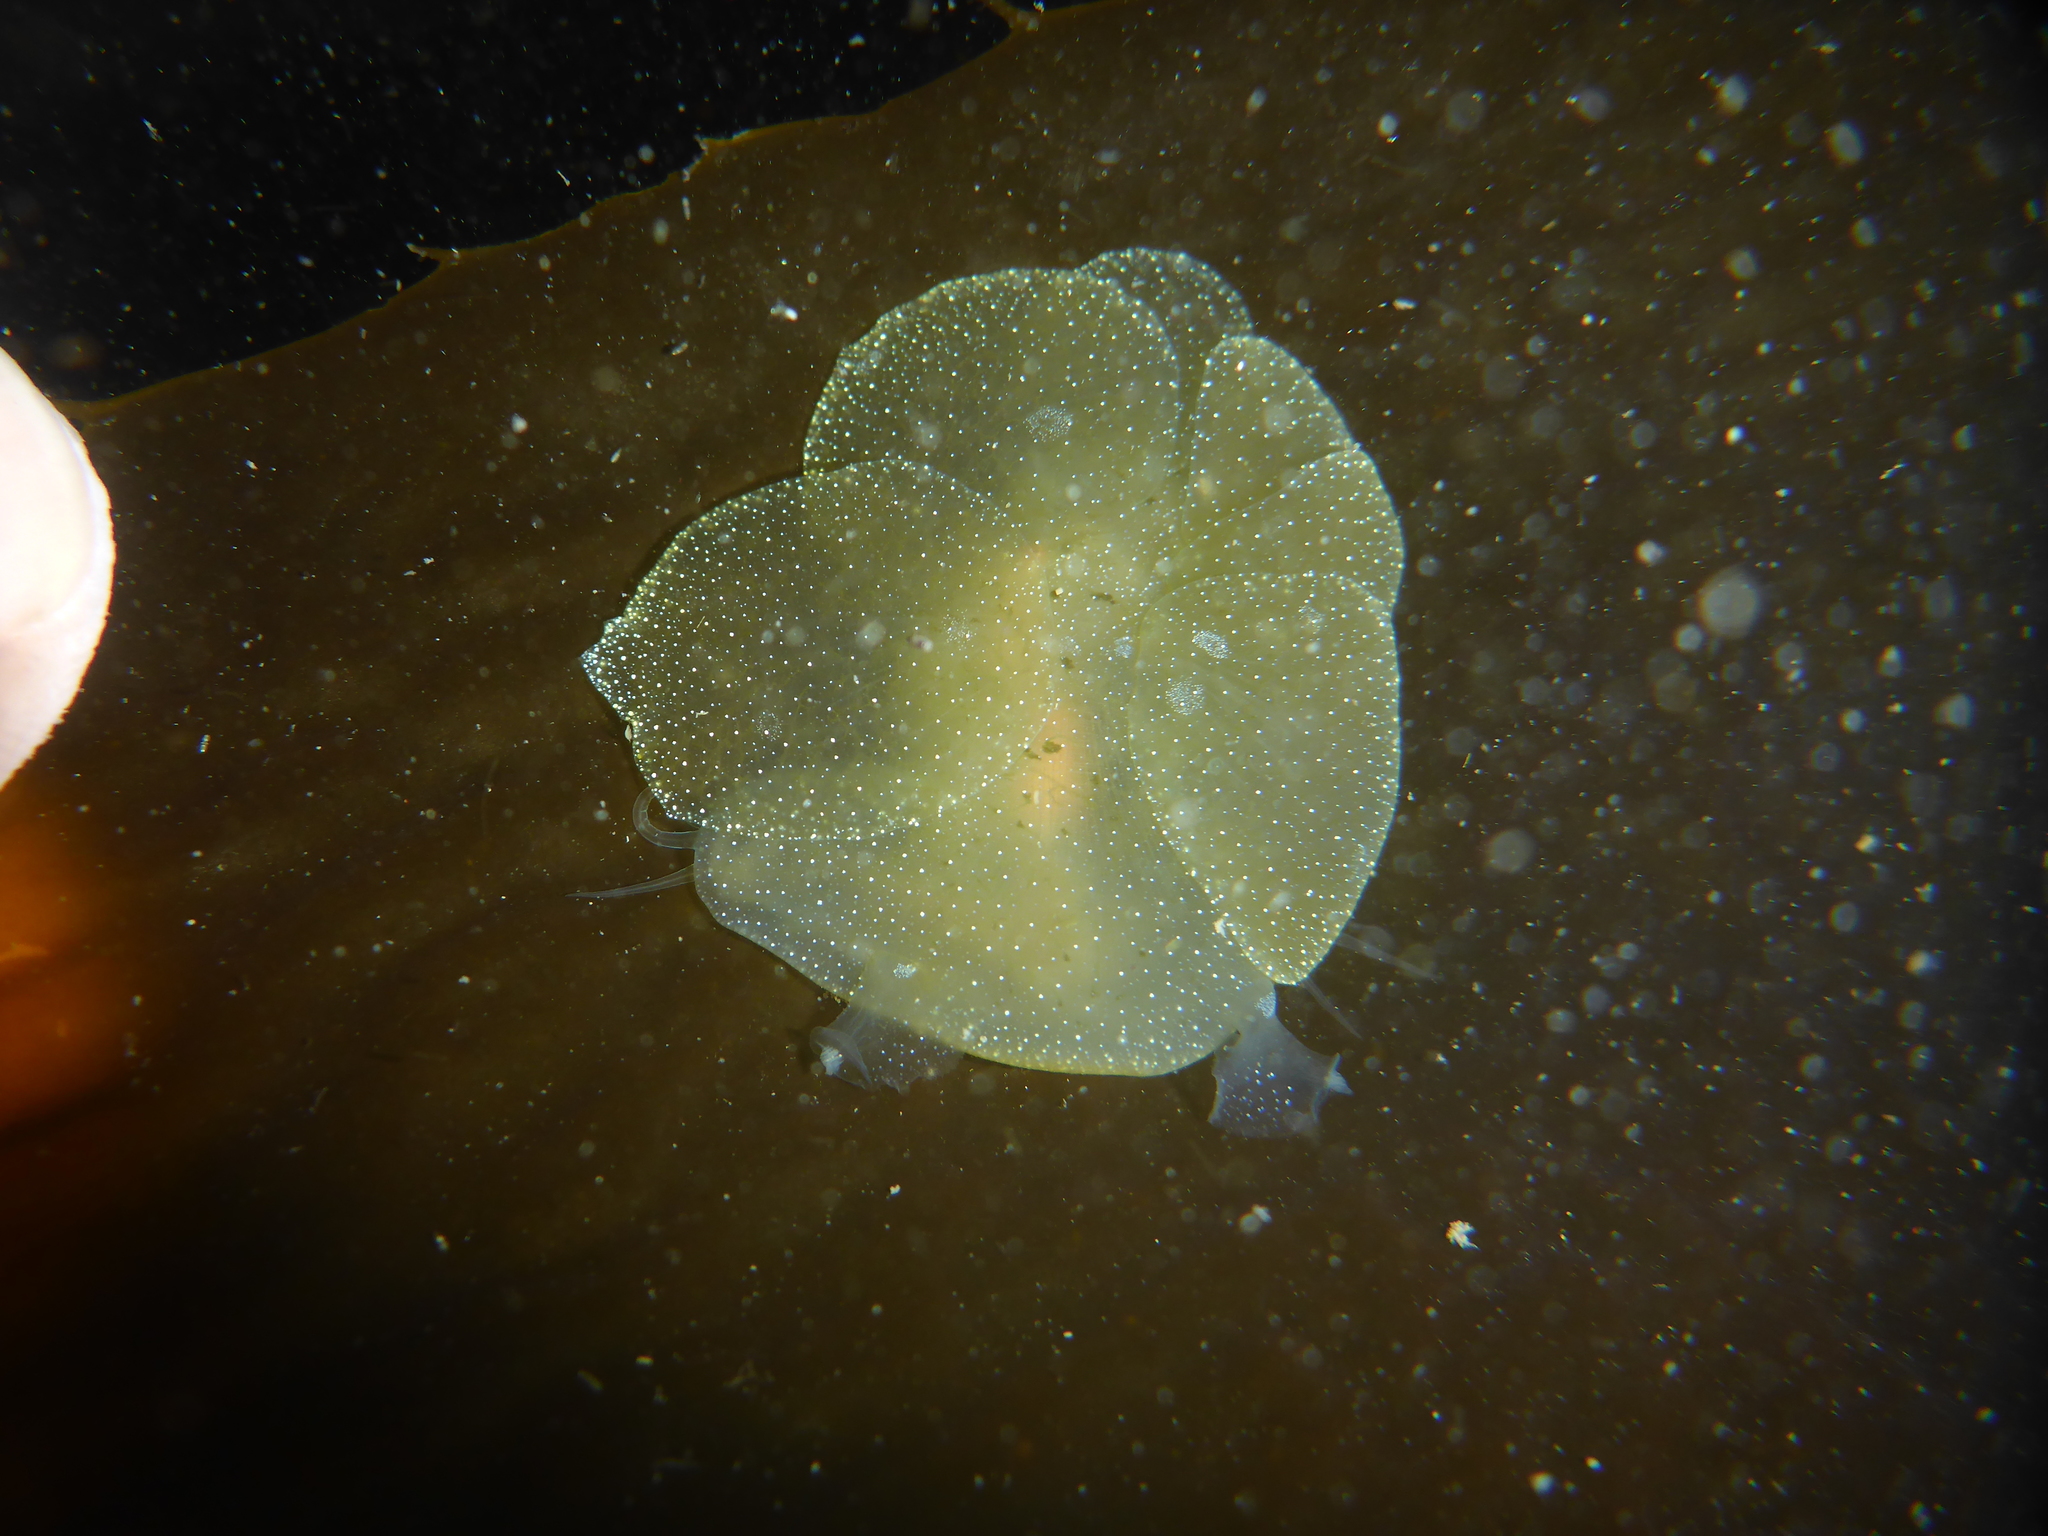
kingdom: Animalia
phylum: Mollusca
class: Gastropoda
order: Nudibranchia
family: Tethydidae
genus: Melibe
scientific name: Melibe leonina
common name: Lion nudibranch
